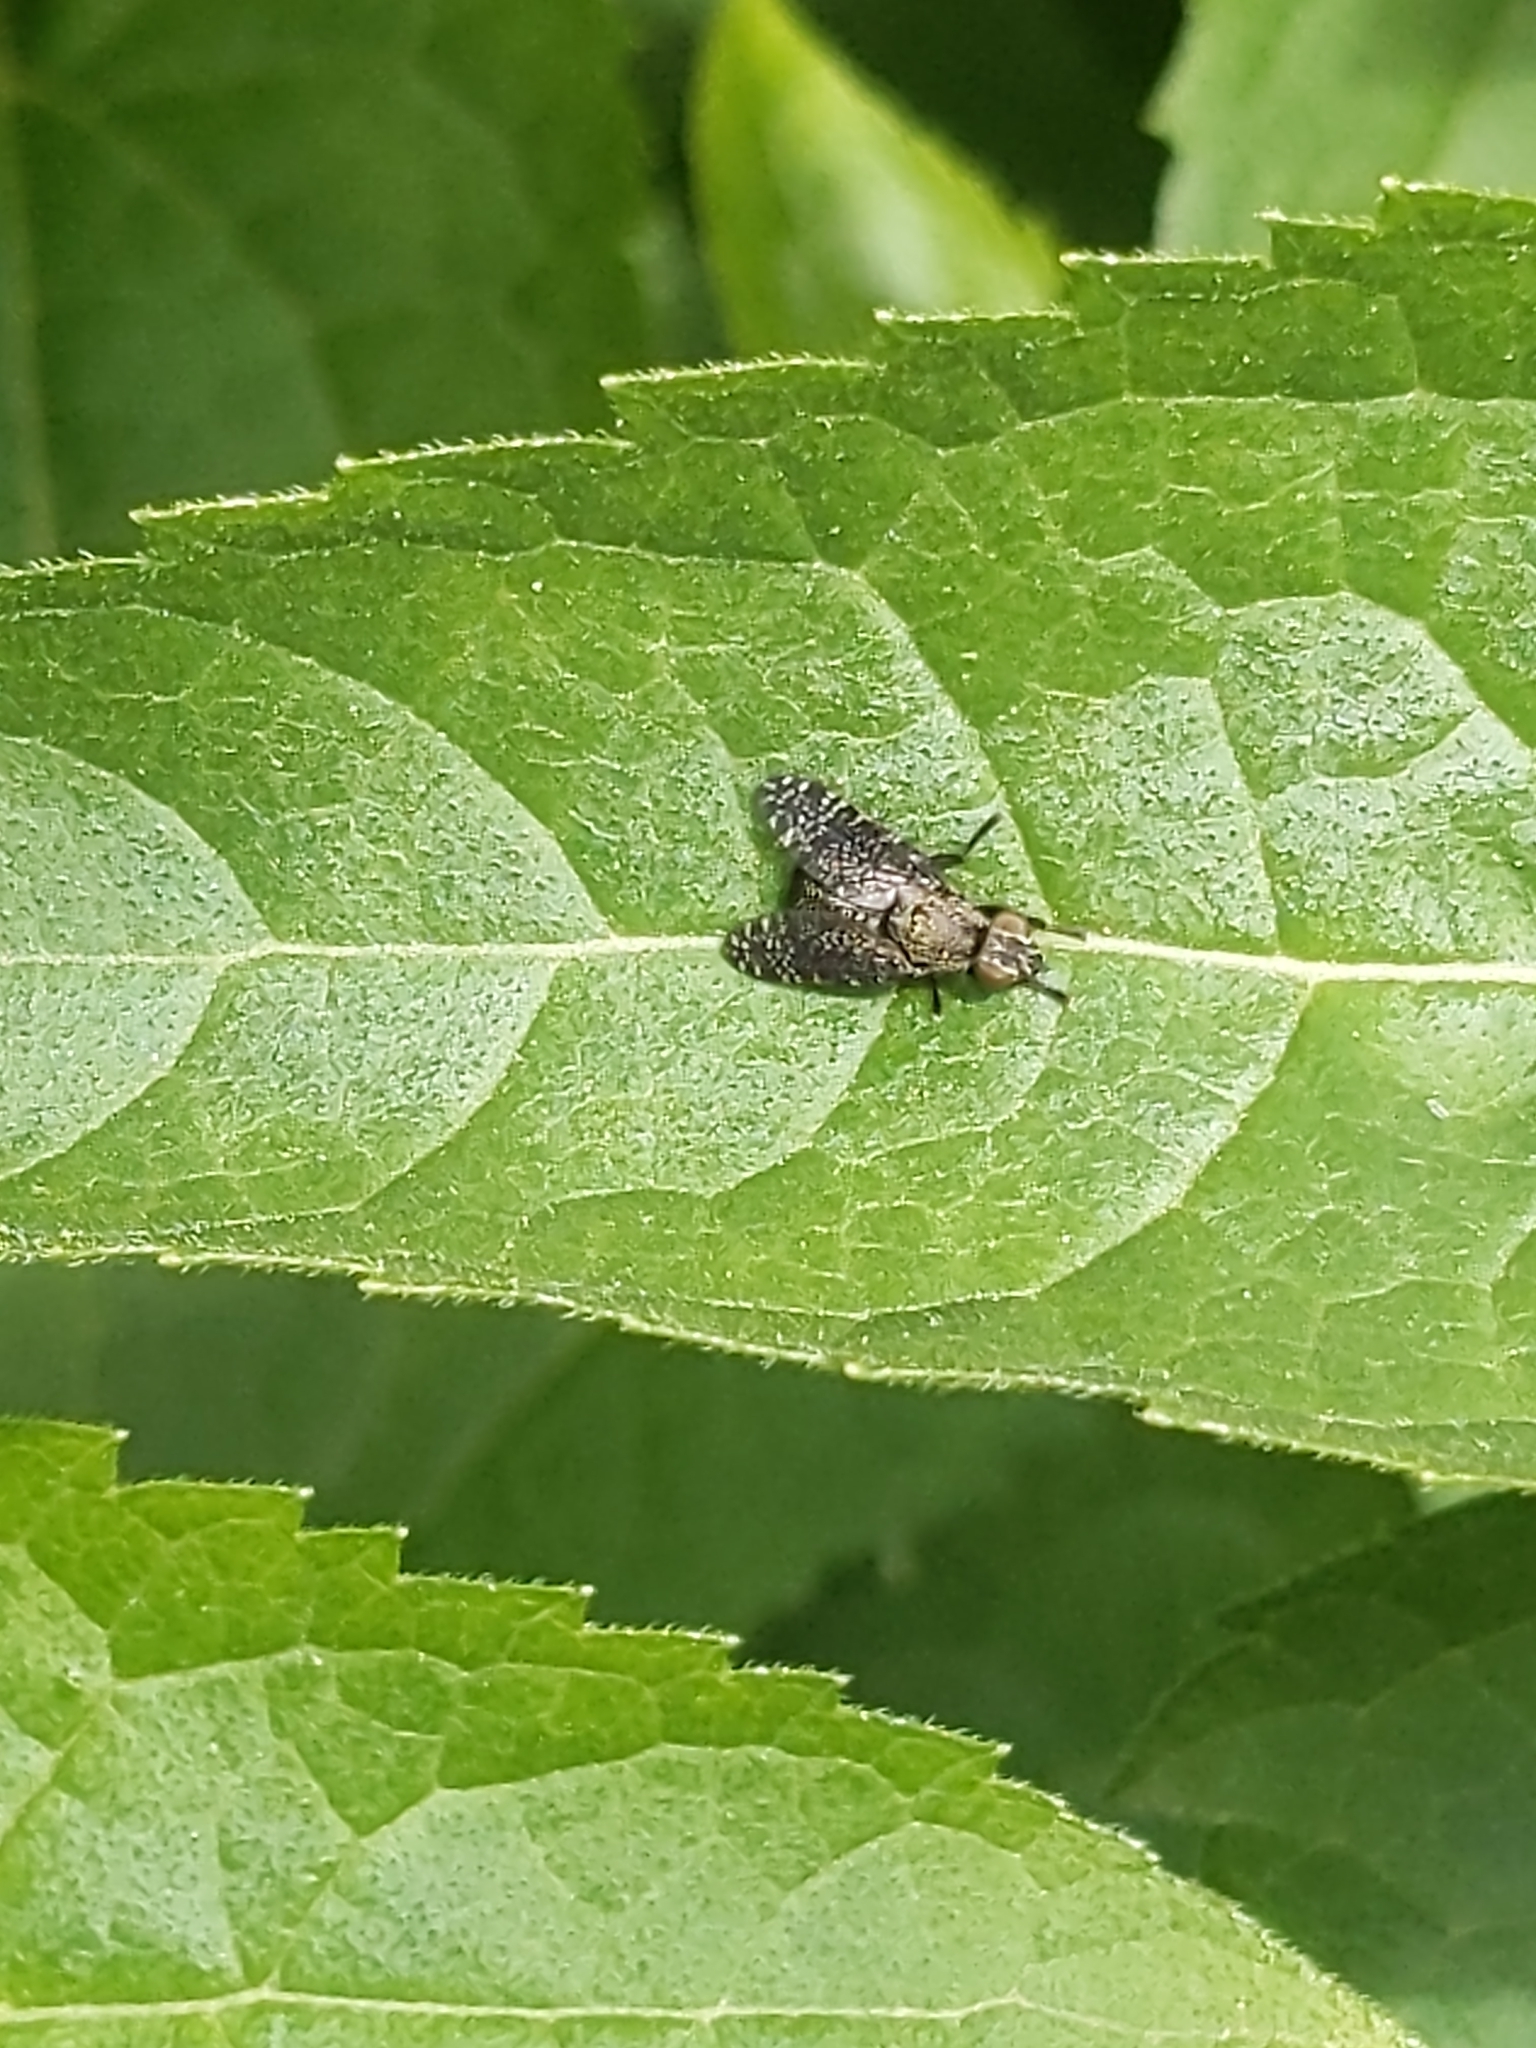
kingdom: Animalia
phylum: Arthropoda
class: Insecta
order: Diptera
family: Platystomatidae
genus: Platystoma
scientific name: Platystoma seminationis
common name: Fly
